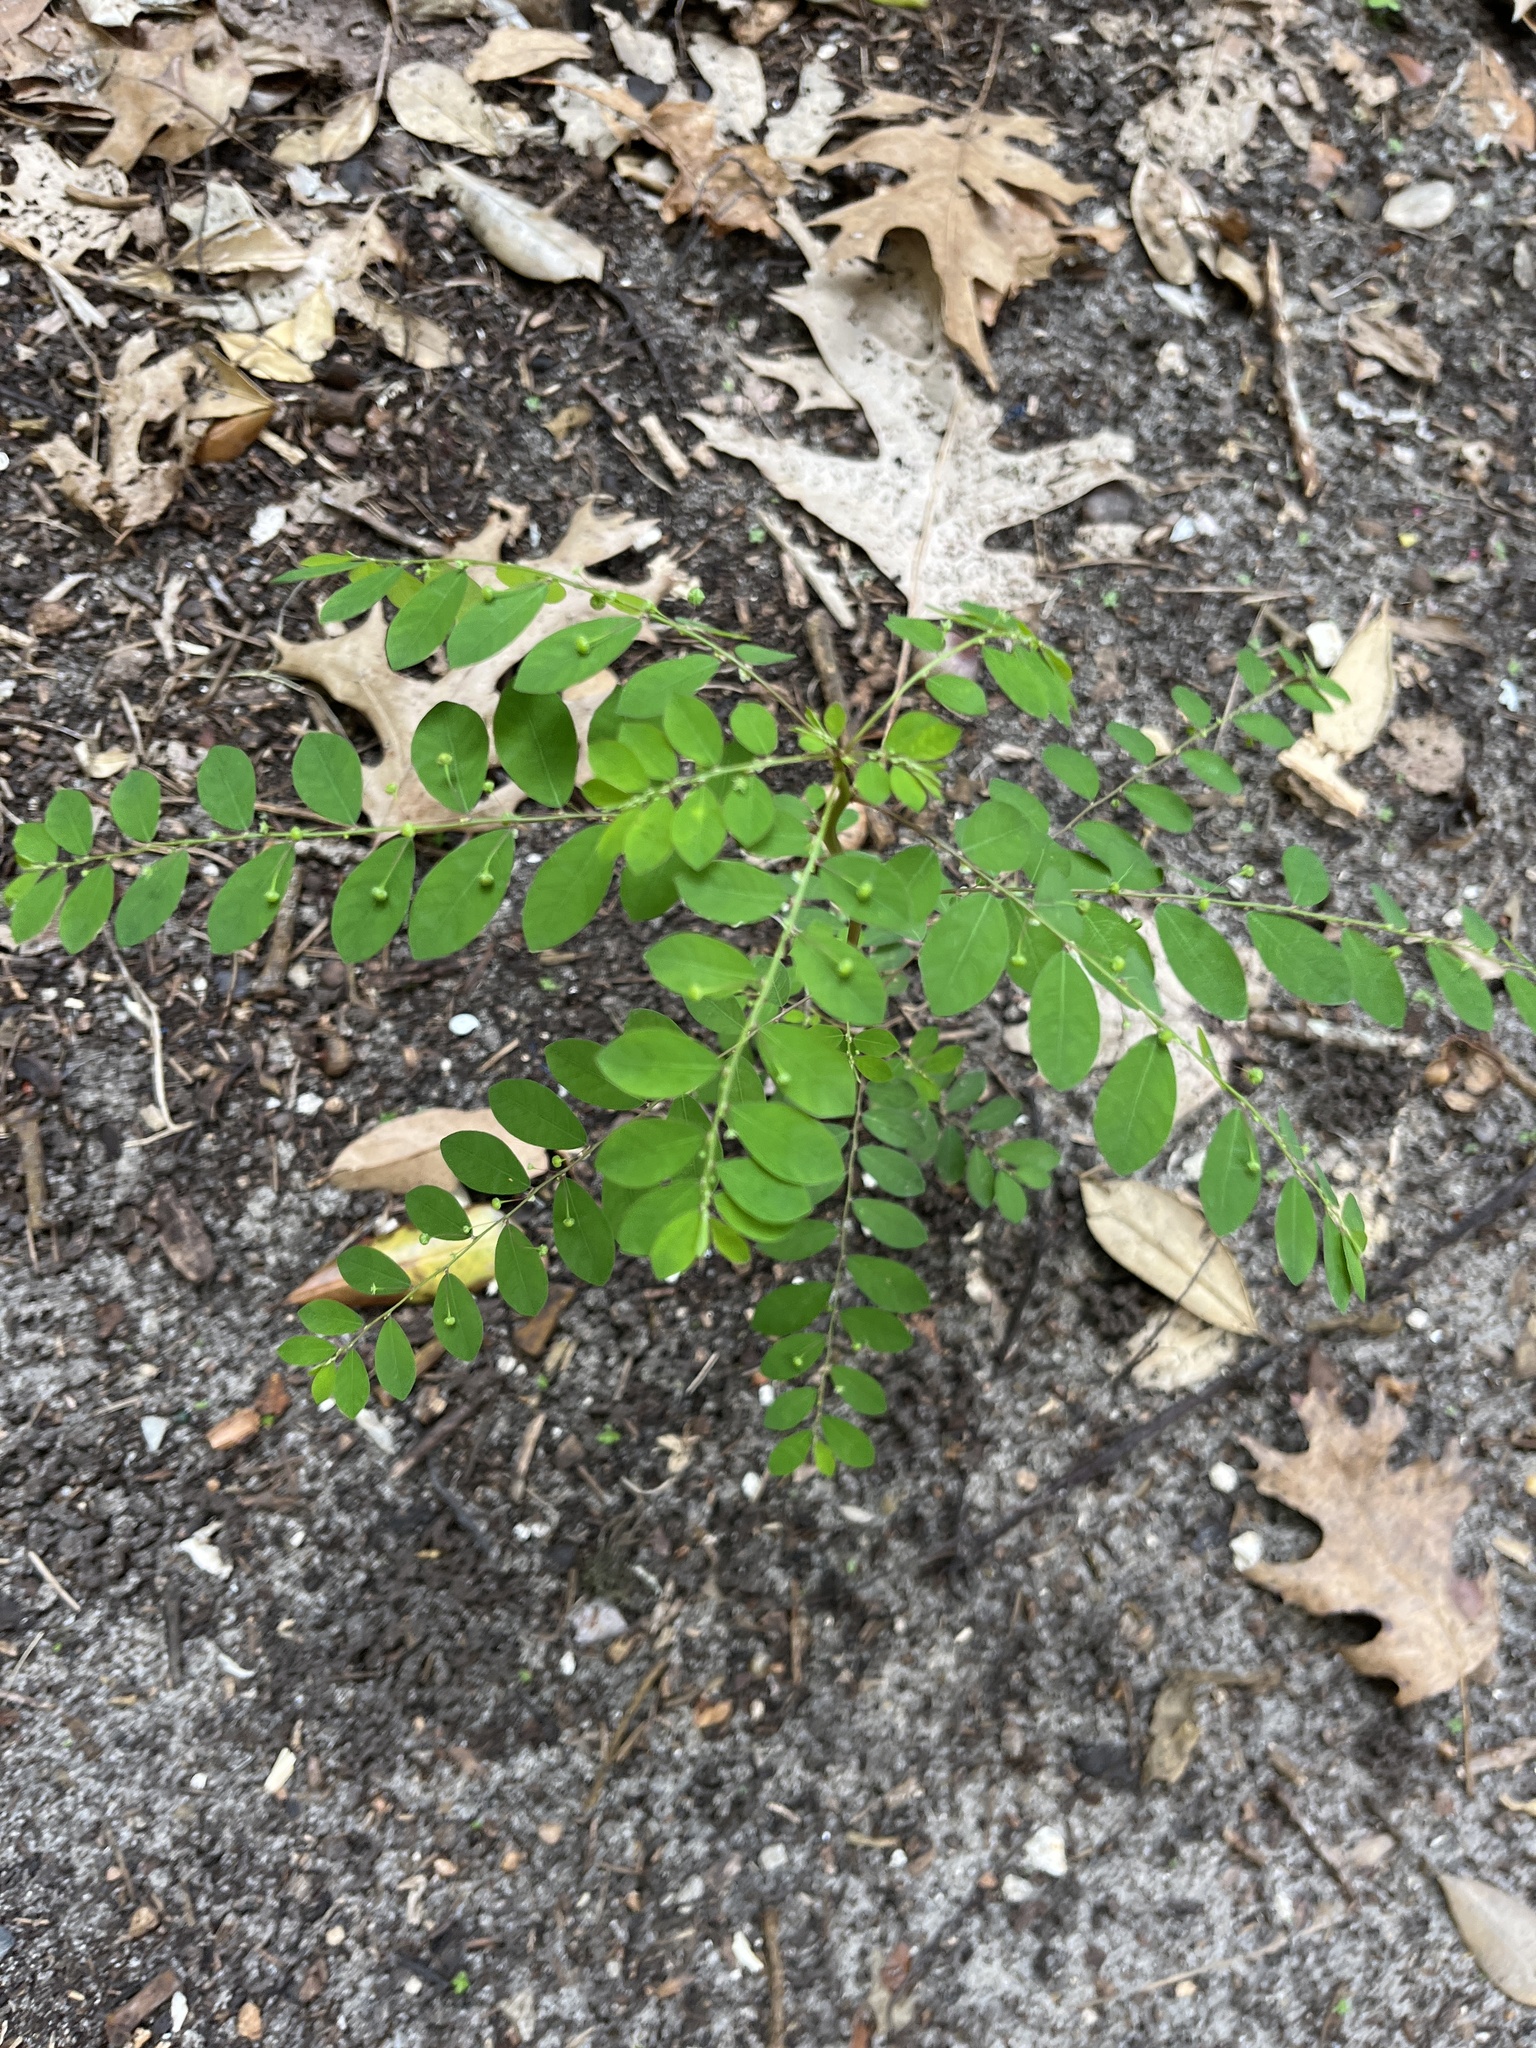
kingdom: Plantae
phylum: Tracheophyta
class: Magnoliopsida
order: Malpighiales
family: Phyllanthaceae
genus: Phyllanthus
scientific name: Phyllanthus tenellus
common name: Mascarene island leaf-flower
